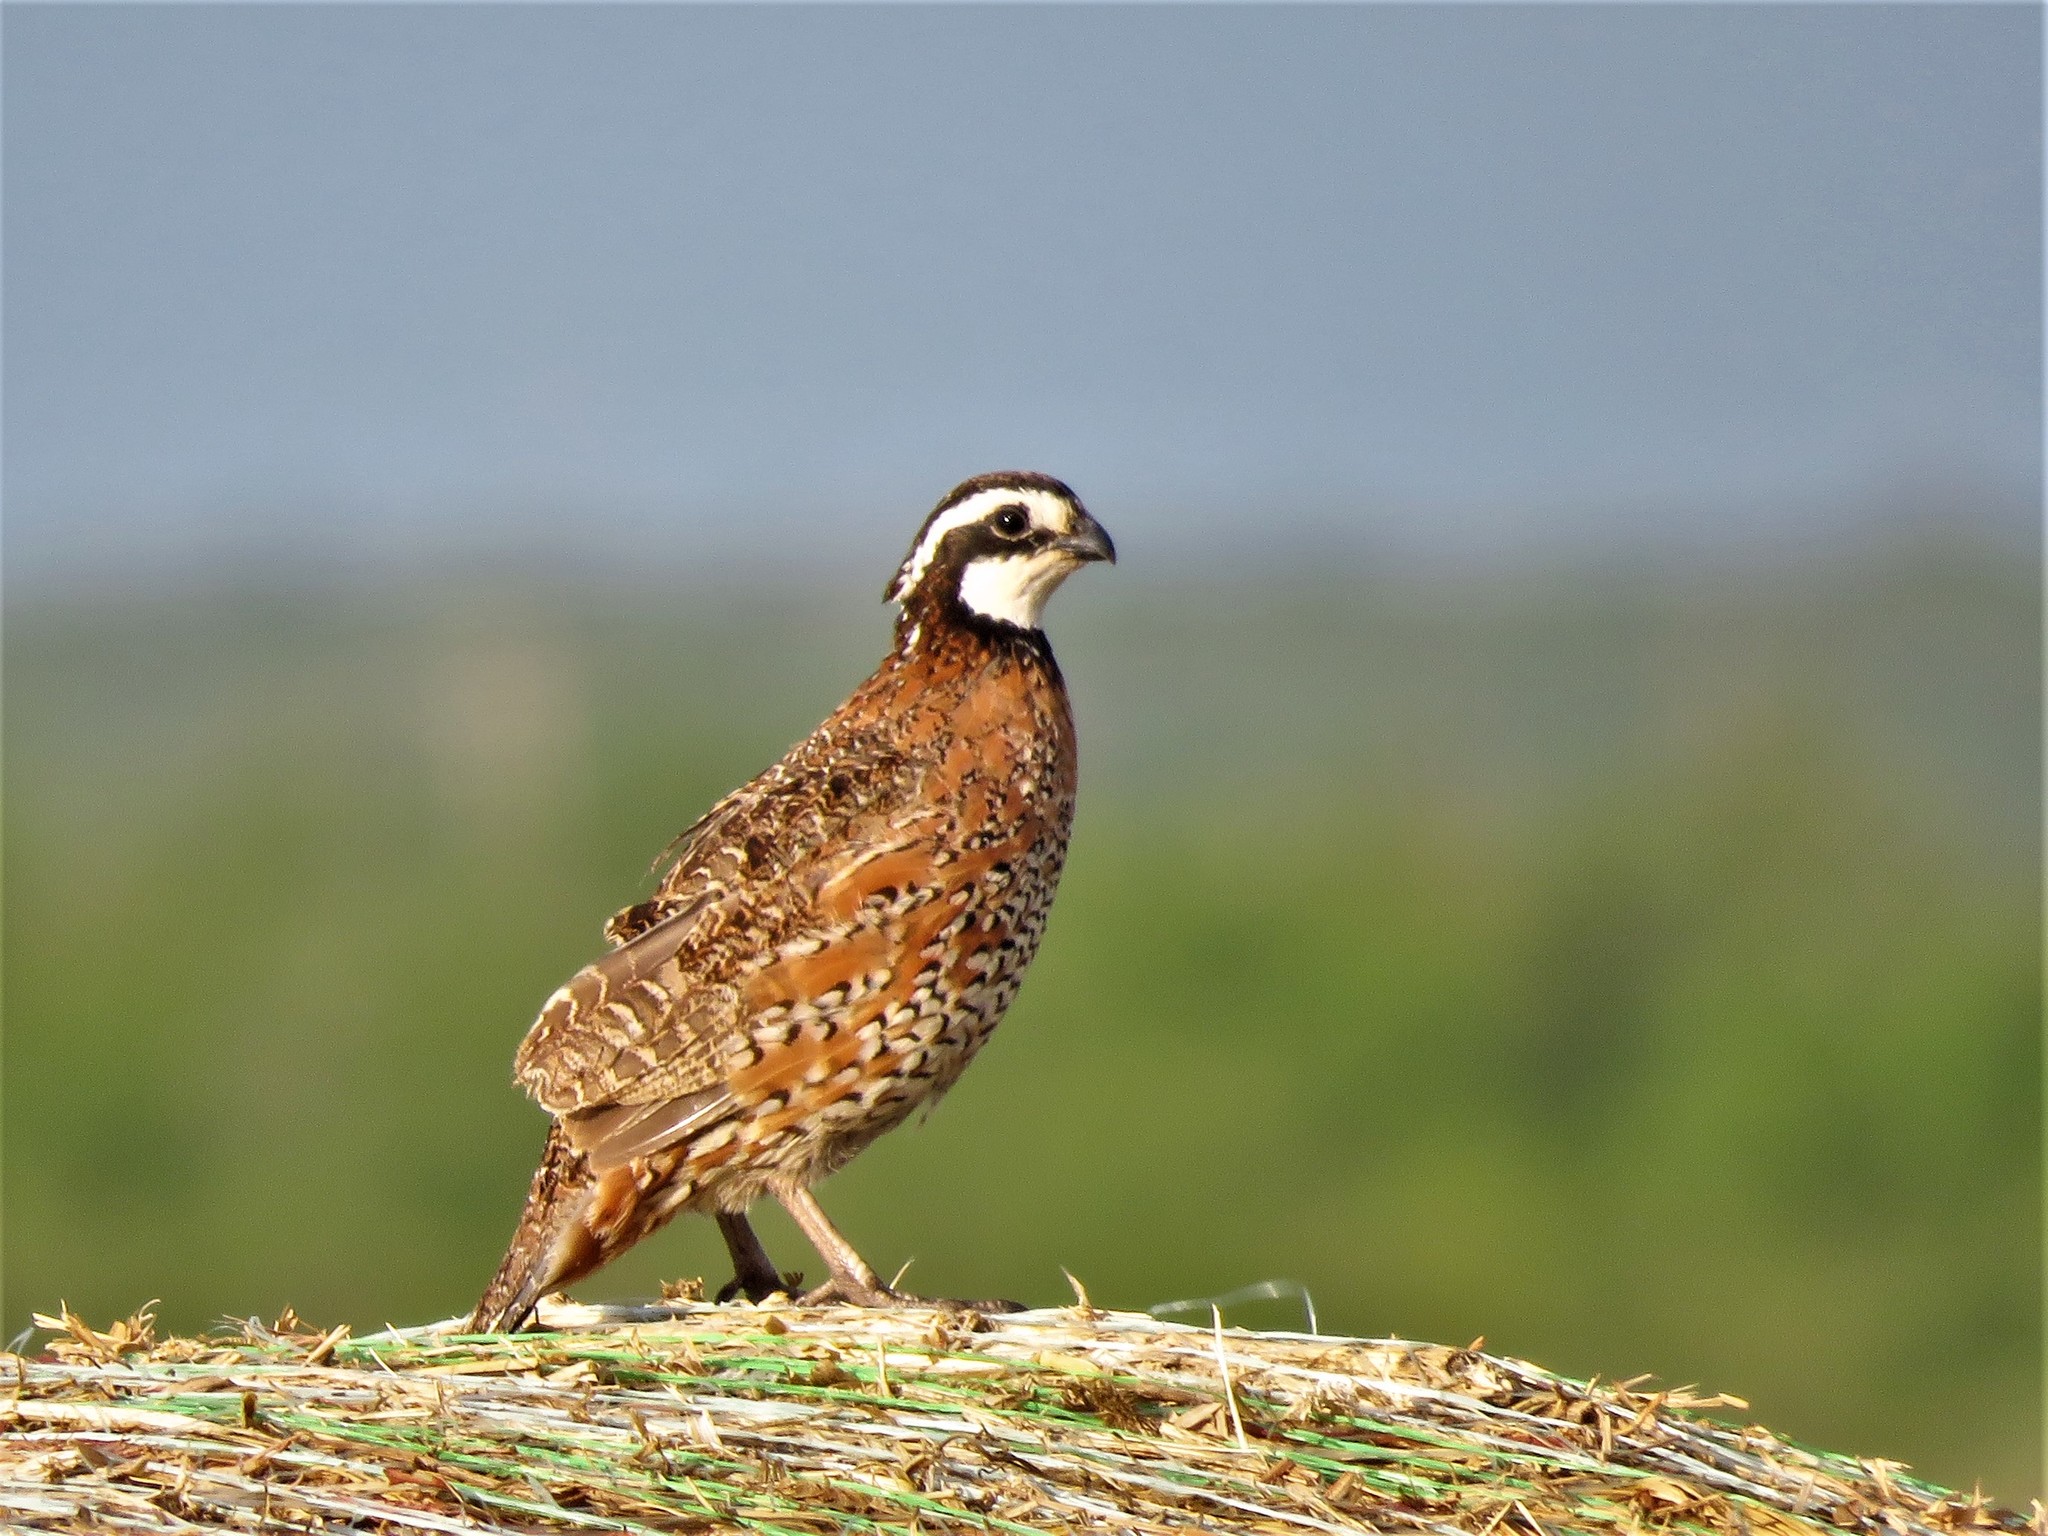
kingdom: Animalia
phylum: Chordata
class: Aves
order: Galliformes
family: Odontophoridae
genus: Colinus
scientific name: Colinus virginianus
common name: Northern bobwhite
